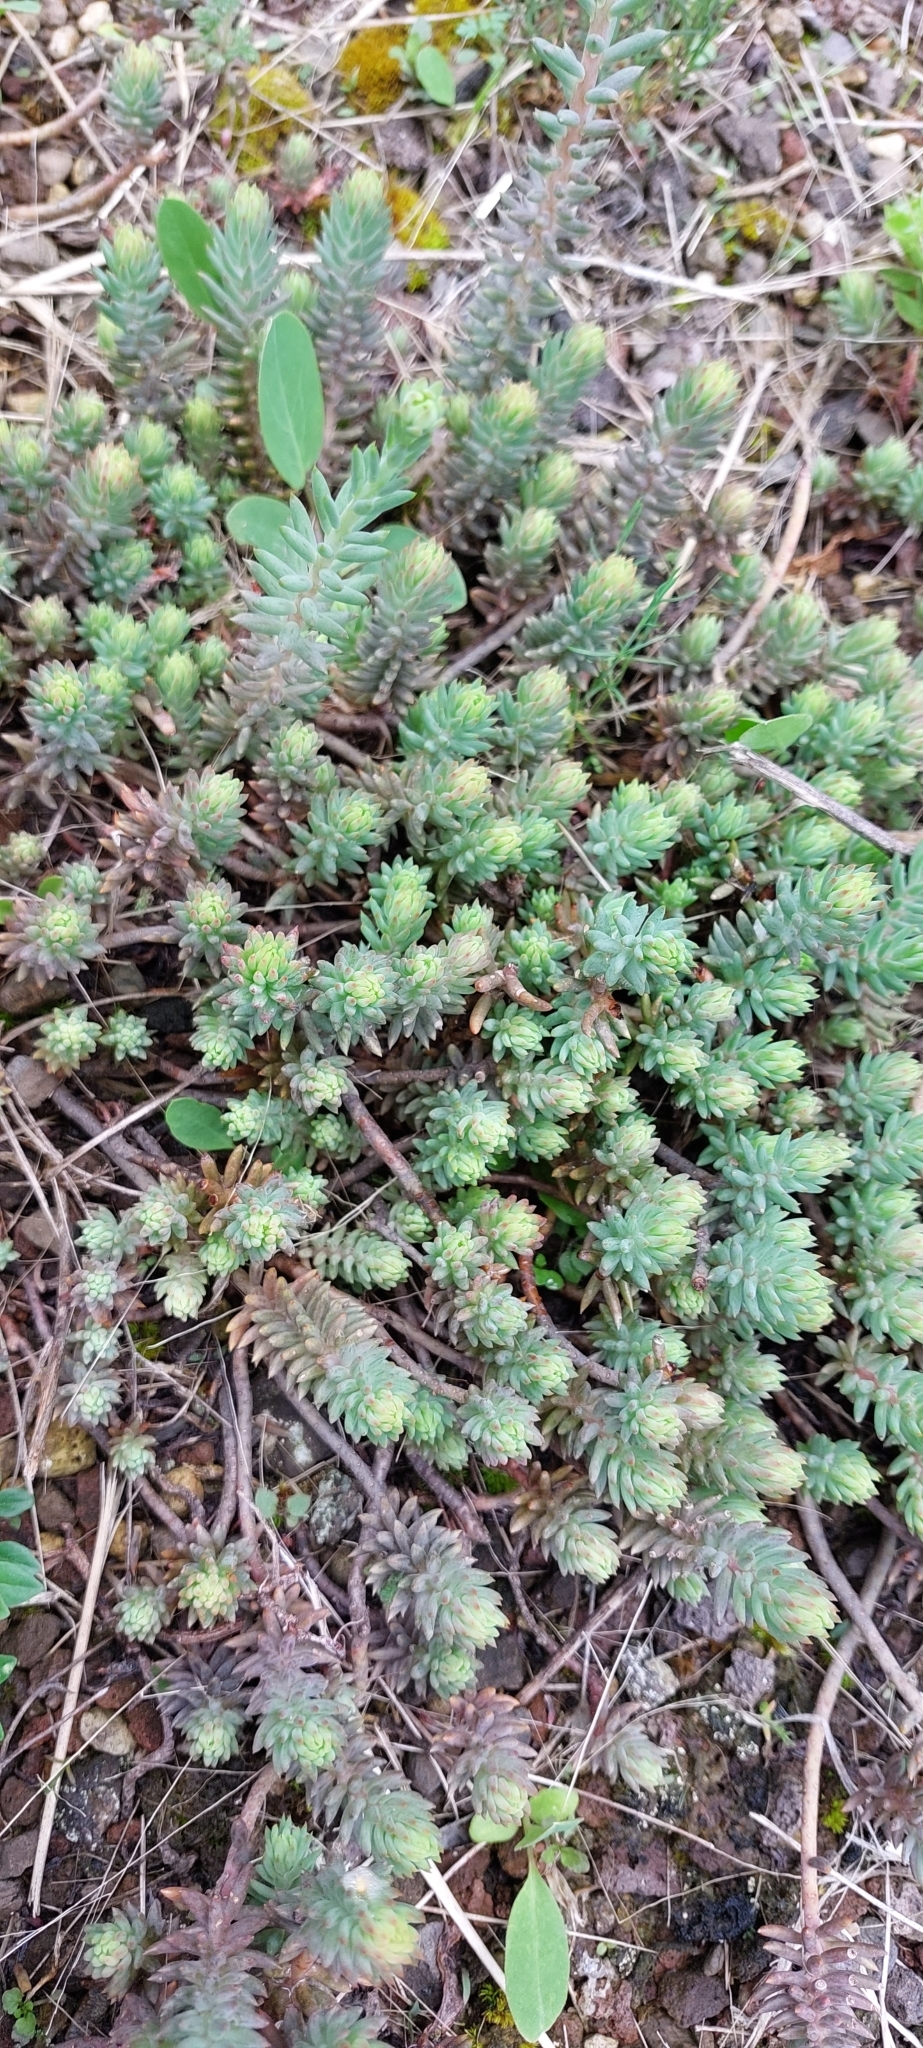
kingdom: Plantae
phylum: Tracheophyta
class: Magnoliopsida
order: Saxifragales
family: Crassulaceae
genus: Petrosedum
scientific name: Petrosedum rupestre
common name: Jenny's stonecrop
